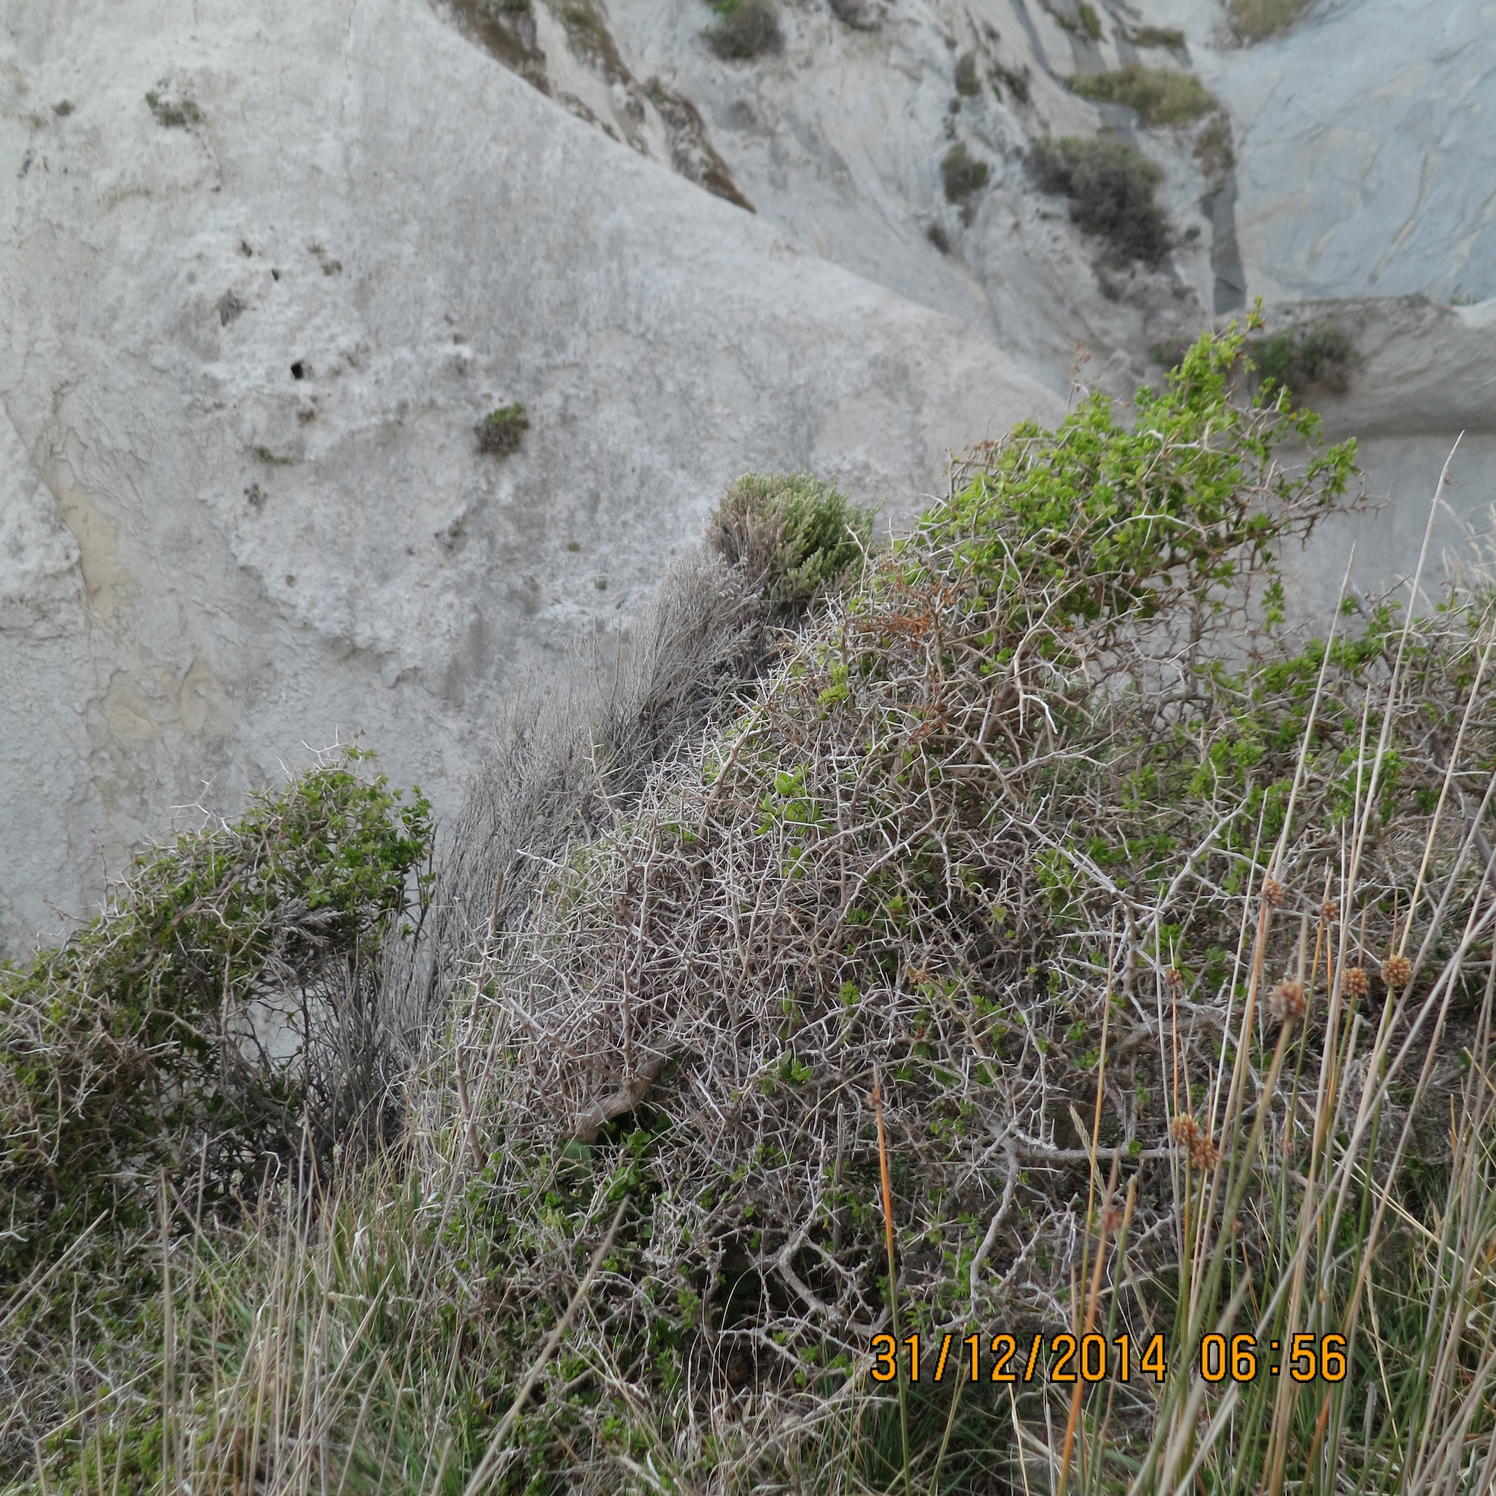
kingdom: Plantae
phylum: Tracheophyta
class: Magnoliopsida
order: Solanales
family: Solanaceae
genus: Lycium
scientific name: Lycium ferocissimum
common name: African boxthorn
